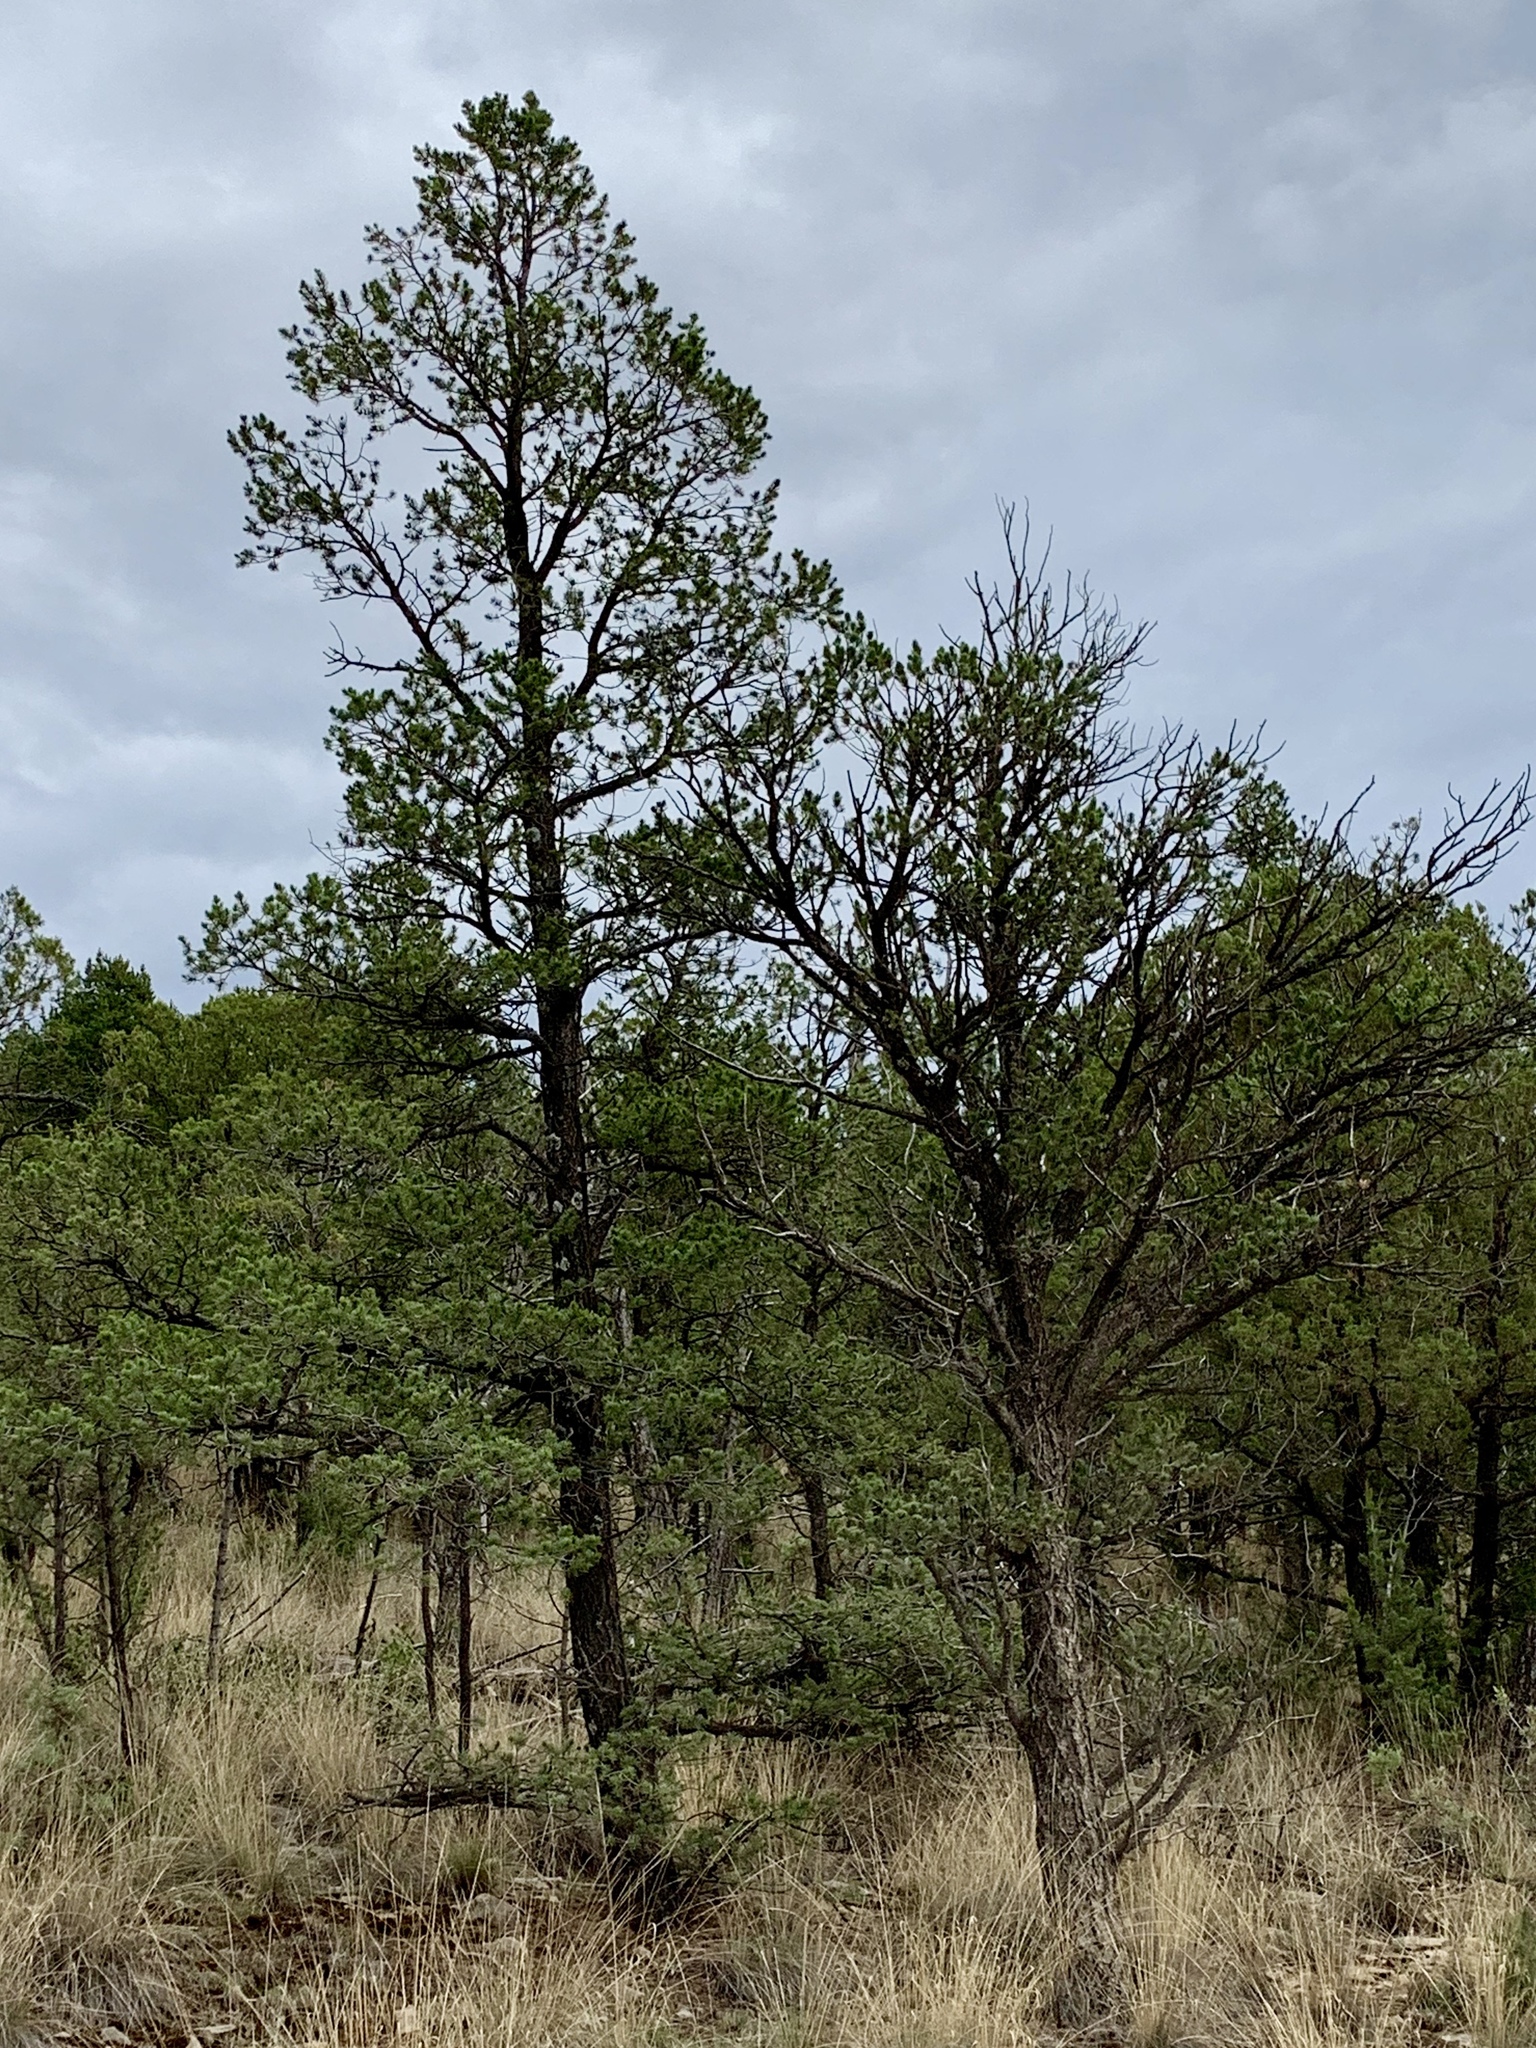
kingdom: Plantae
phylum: Tracheophyta
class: Pinopsida
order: Pinales
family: Pinaceae
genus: Pinus
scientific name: Pinus edulis
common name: Colorado pinyon
